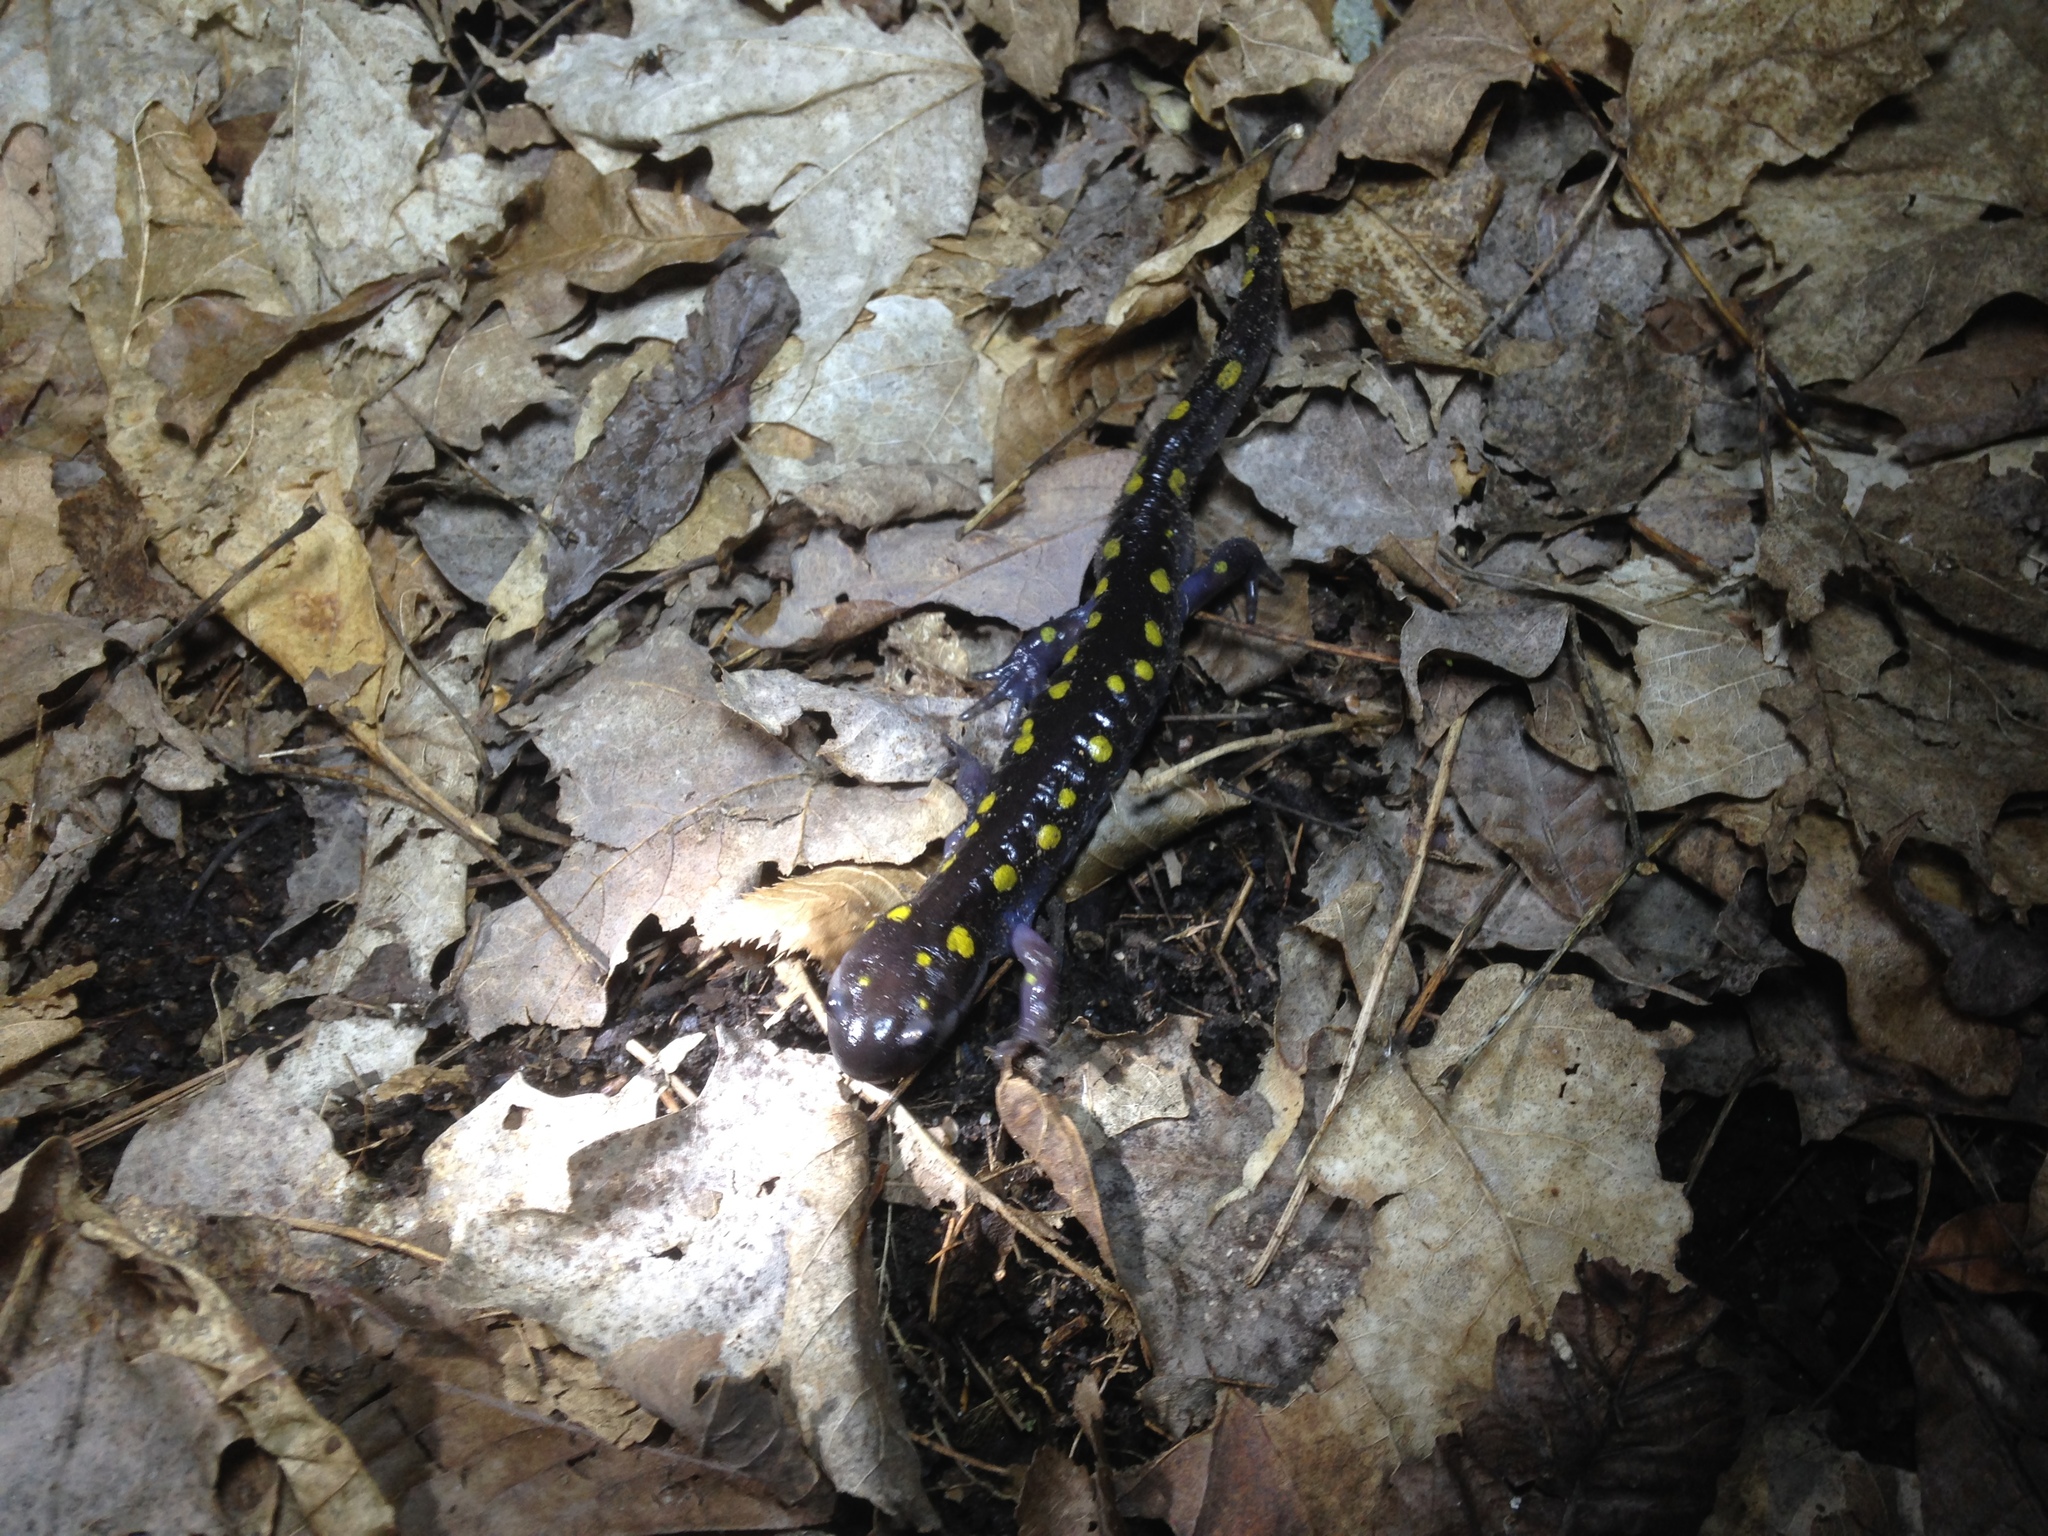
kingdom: Animalia
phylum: Chordata
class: Amphibia
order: Caudata
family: Ambystomatidae
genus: Ambystoma
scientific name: Ambystoma maculatum
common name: Spotted salamander
